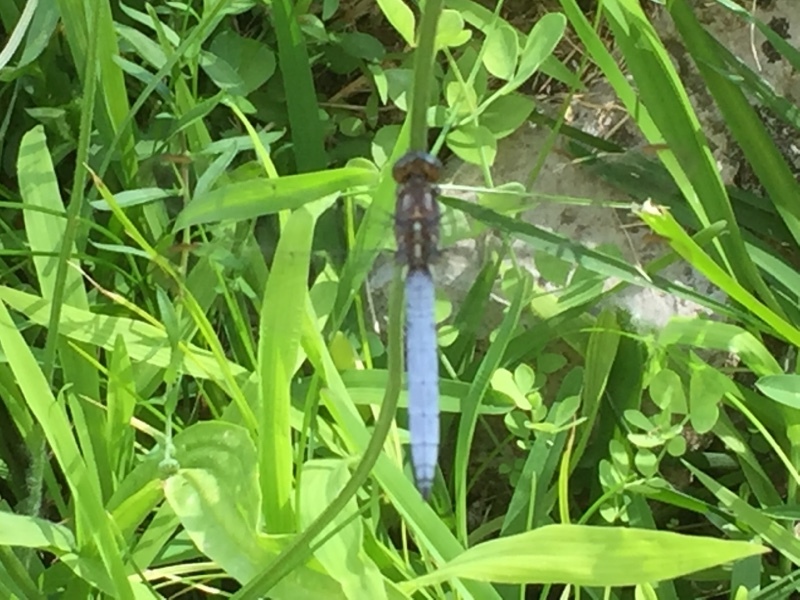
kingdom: Animalia
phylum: Arthropoda
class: Insecta
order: Odonata
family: Libellulidae
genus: Orthetrum
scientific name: Orthetrum coerulescens
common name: Keeled skimmer
